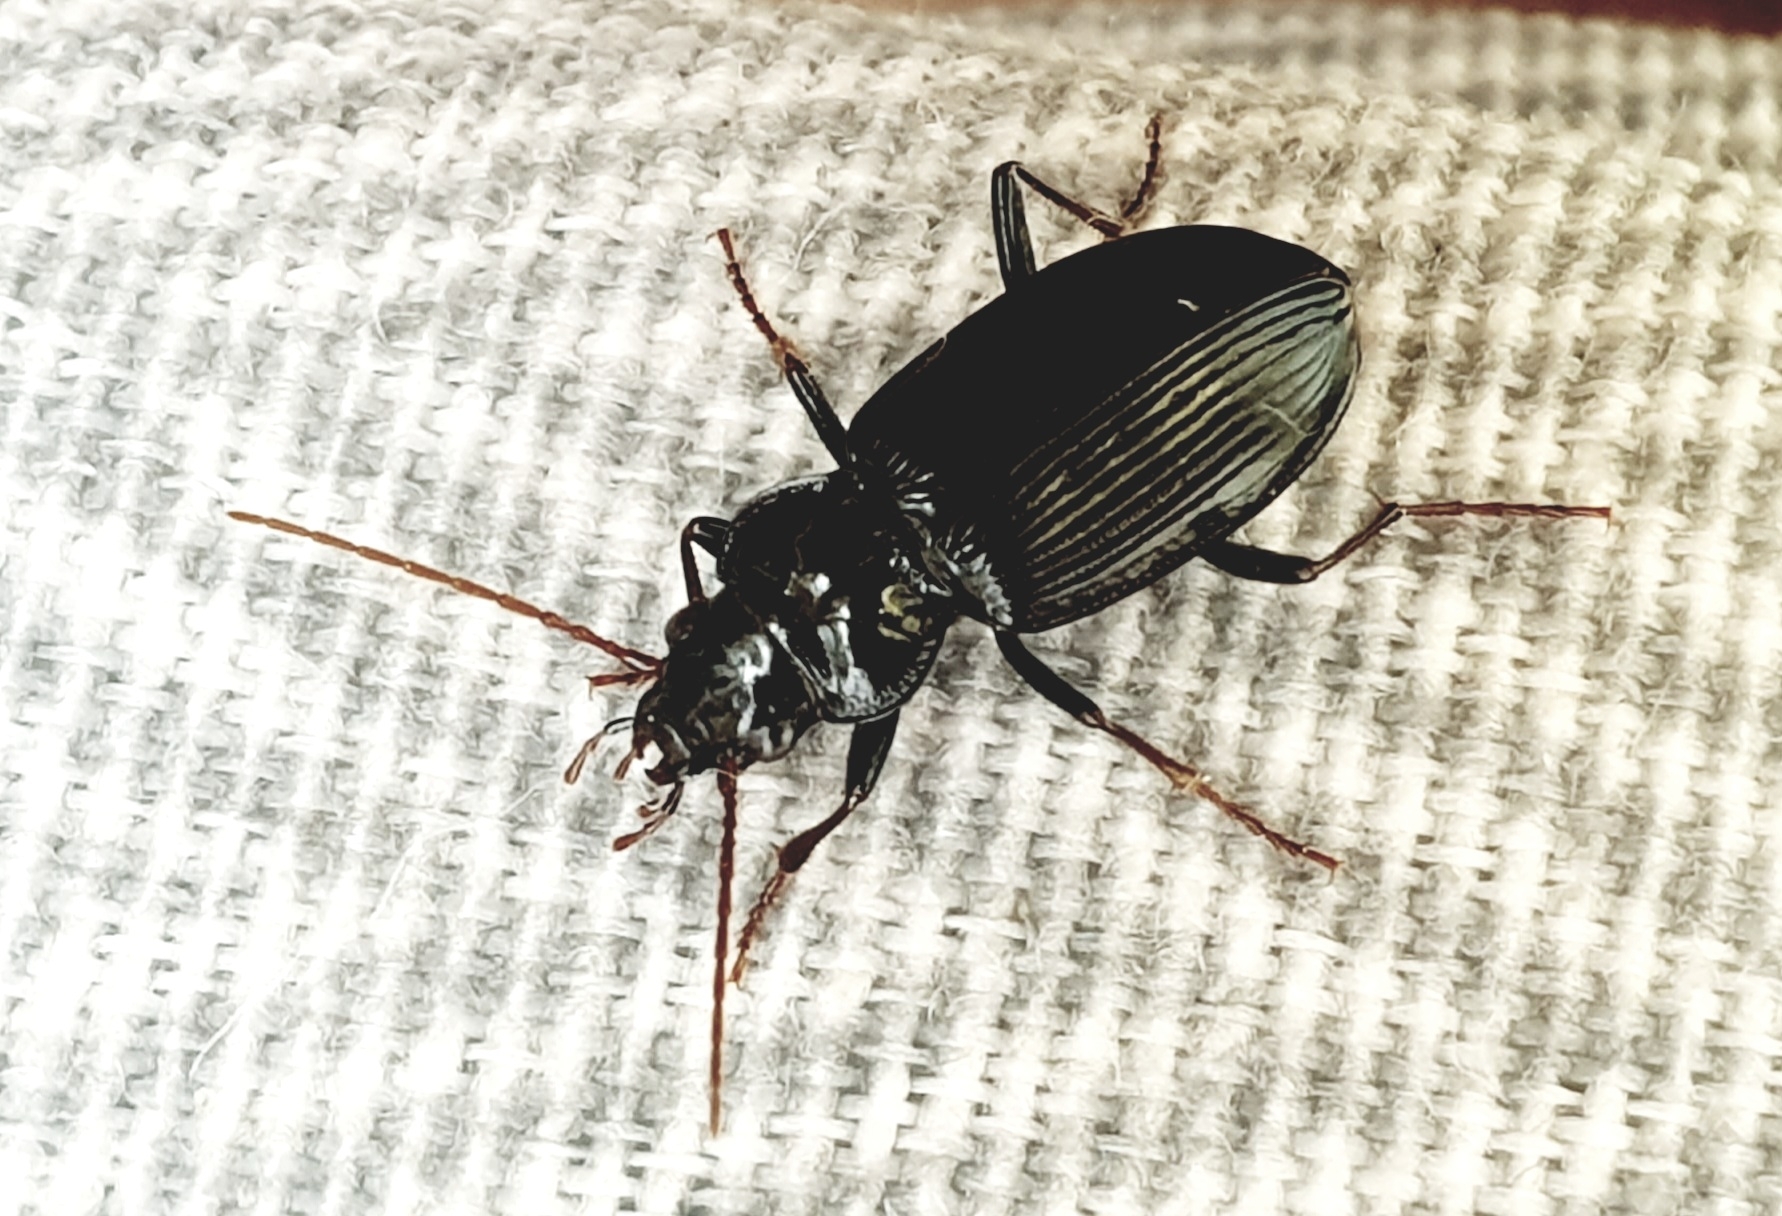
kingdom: Animalia
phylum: Arthropoda
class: Insecta
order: Coleoptera
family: Carabidae
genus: Nebria
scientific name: Nebria salina
